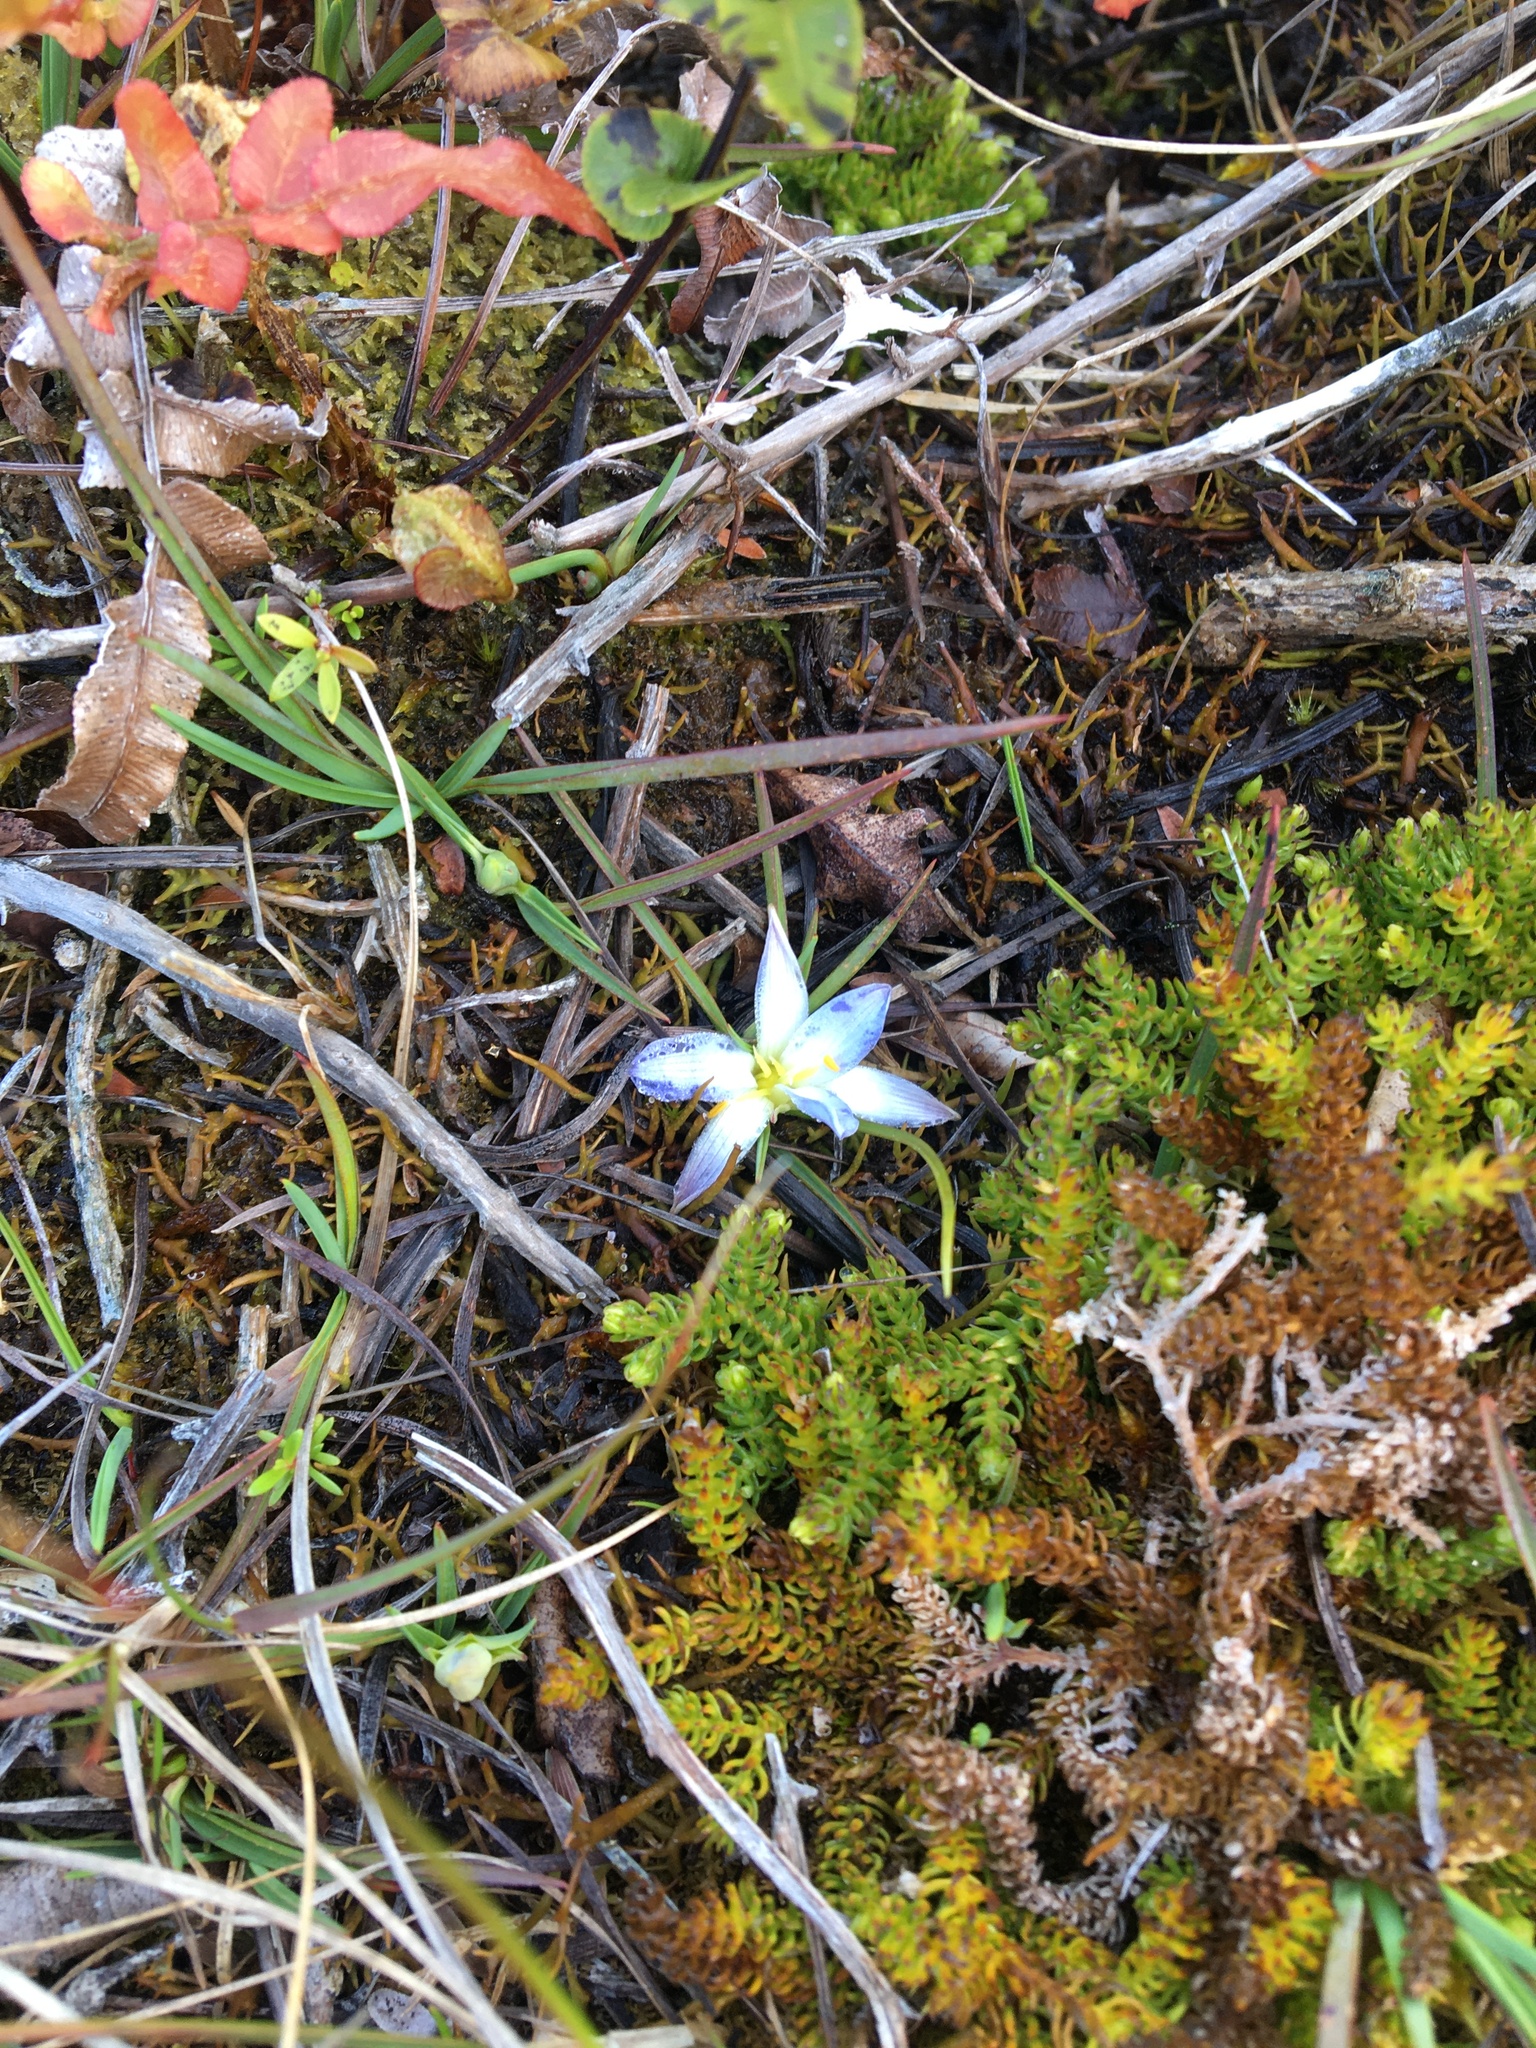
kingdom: Plantae
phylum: Tracheophyta
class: Liliopsida
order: Asparagales
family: Asphodelaceae
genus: Herpolirion
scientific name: Herpolirion novae-zelandiae
